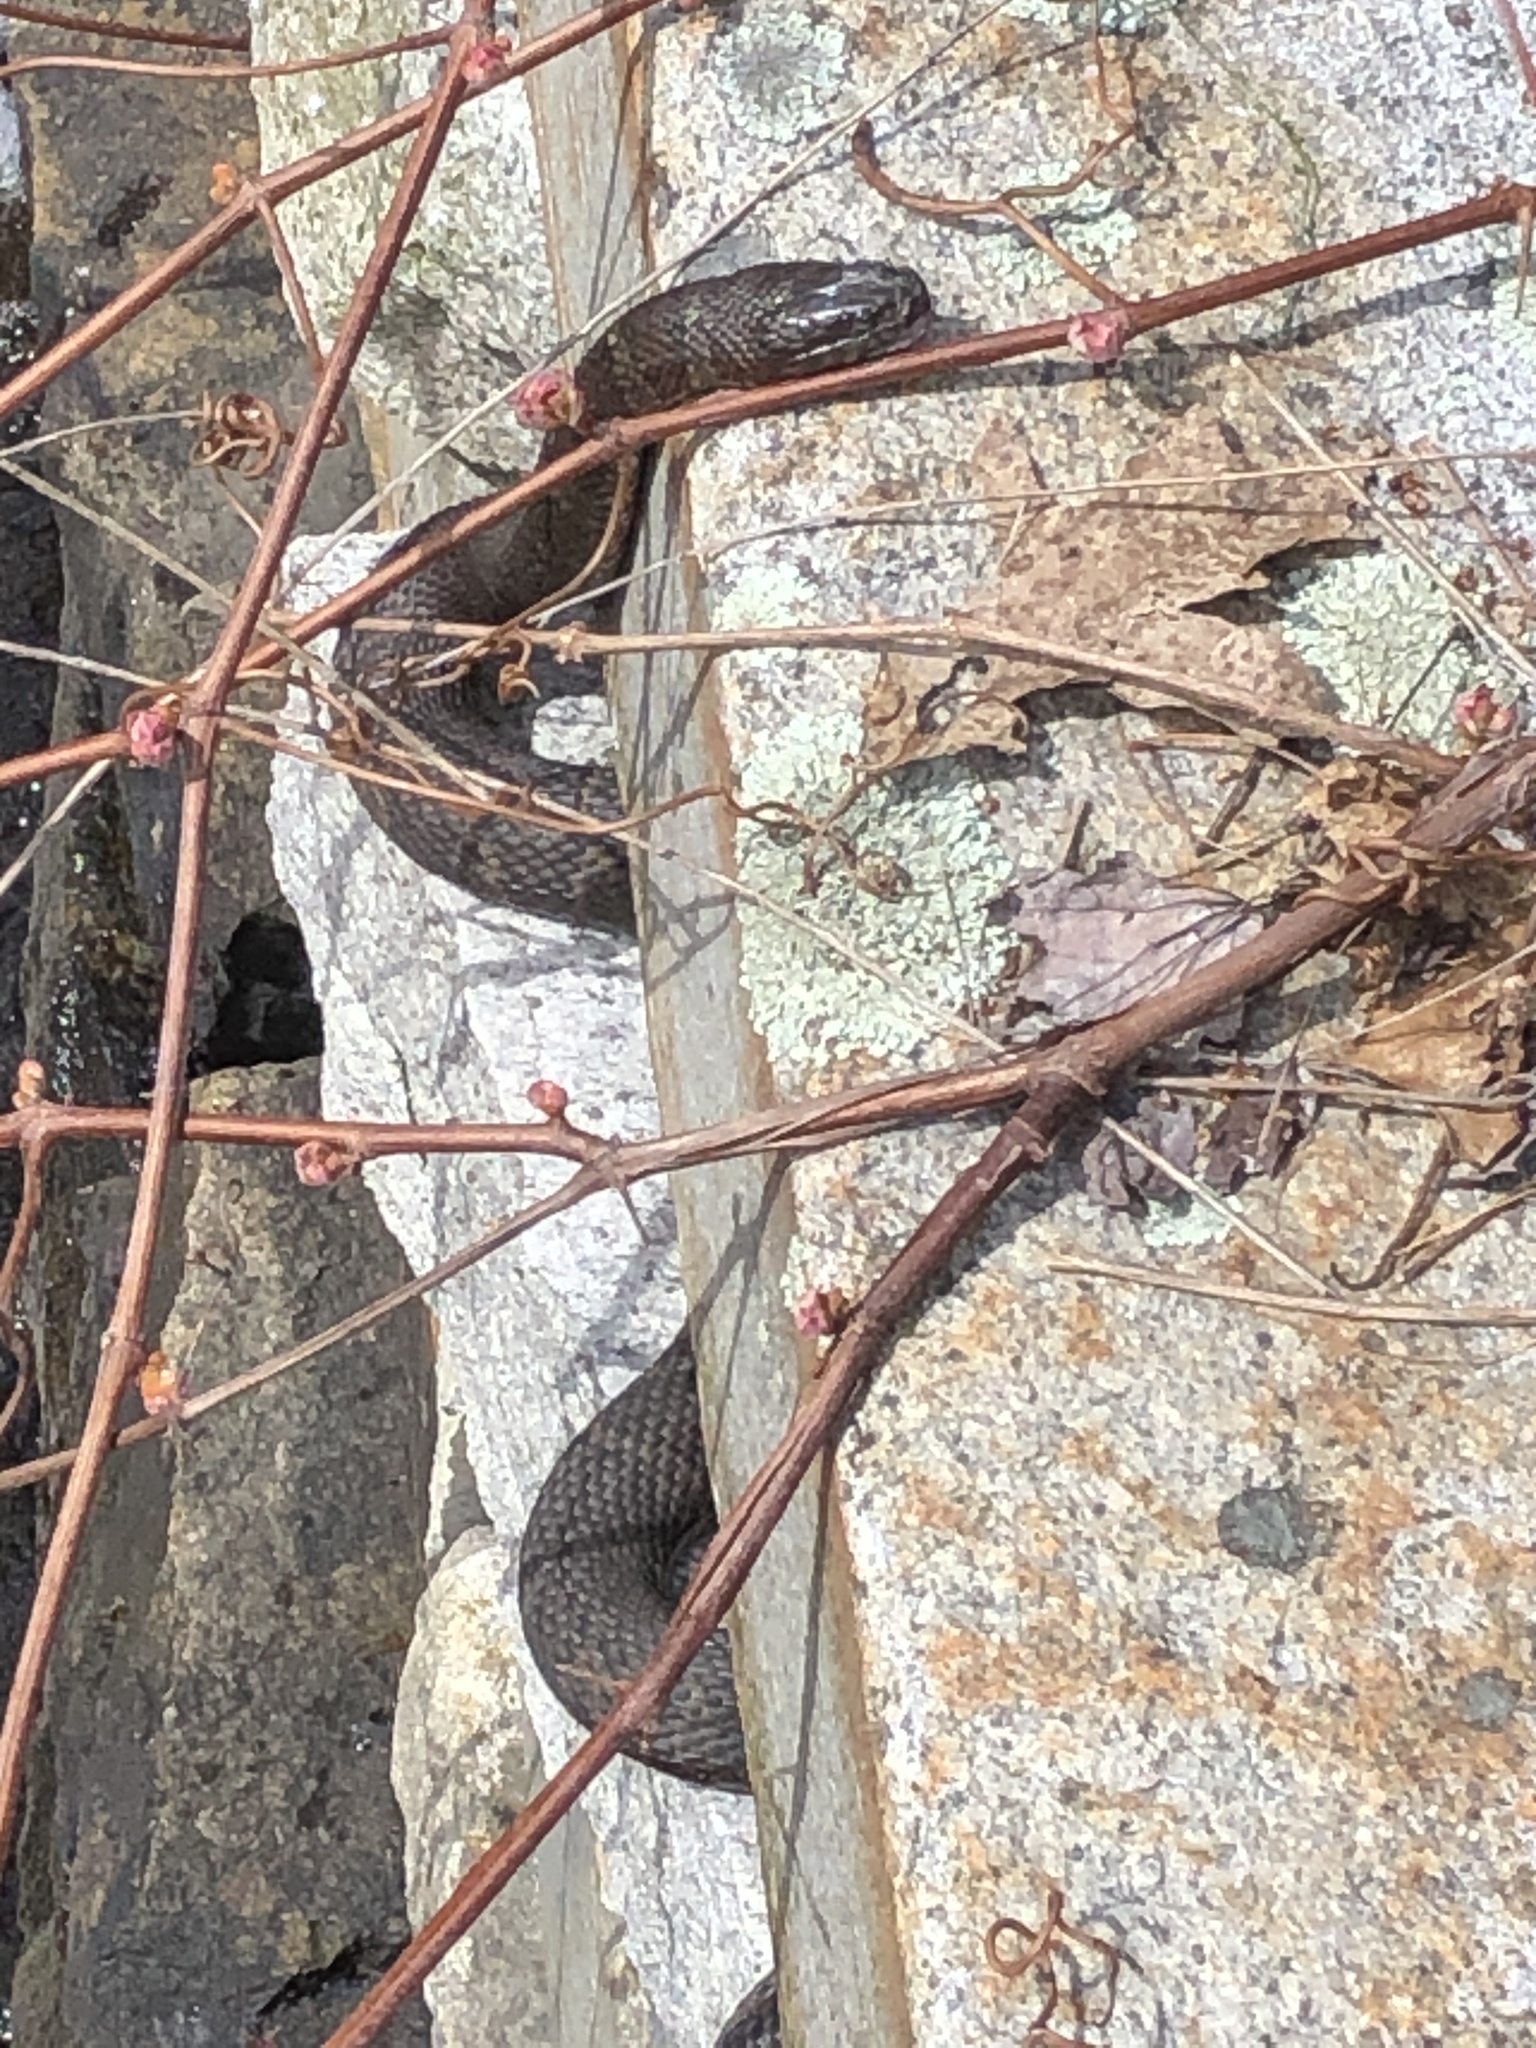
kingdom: Animalia
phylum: Chordata
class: Squamata
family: Colubridae
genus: Nerodia
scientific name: Nerodia sipedon
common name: Northern water snake
